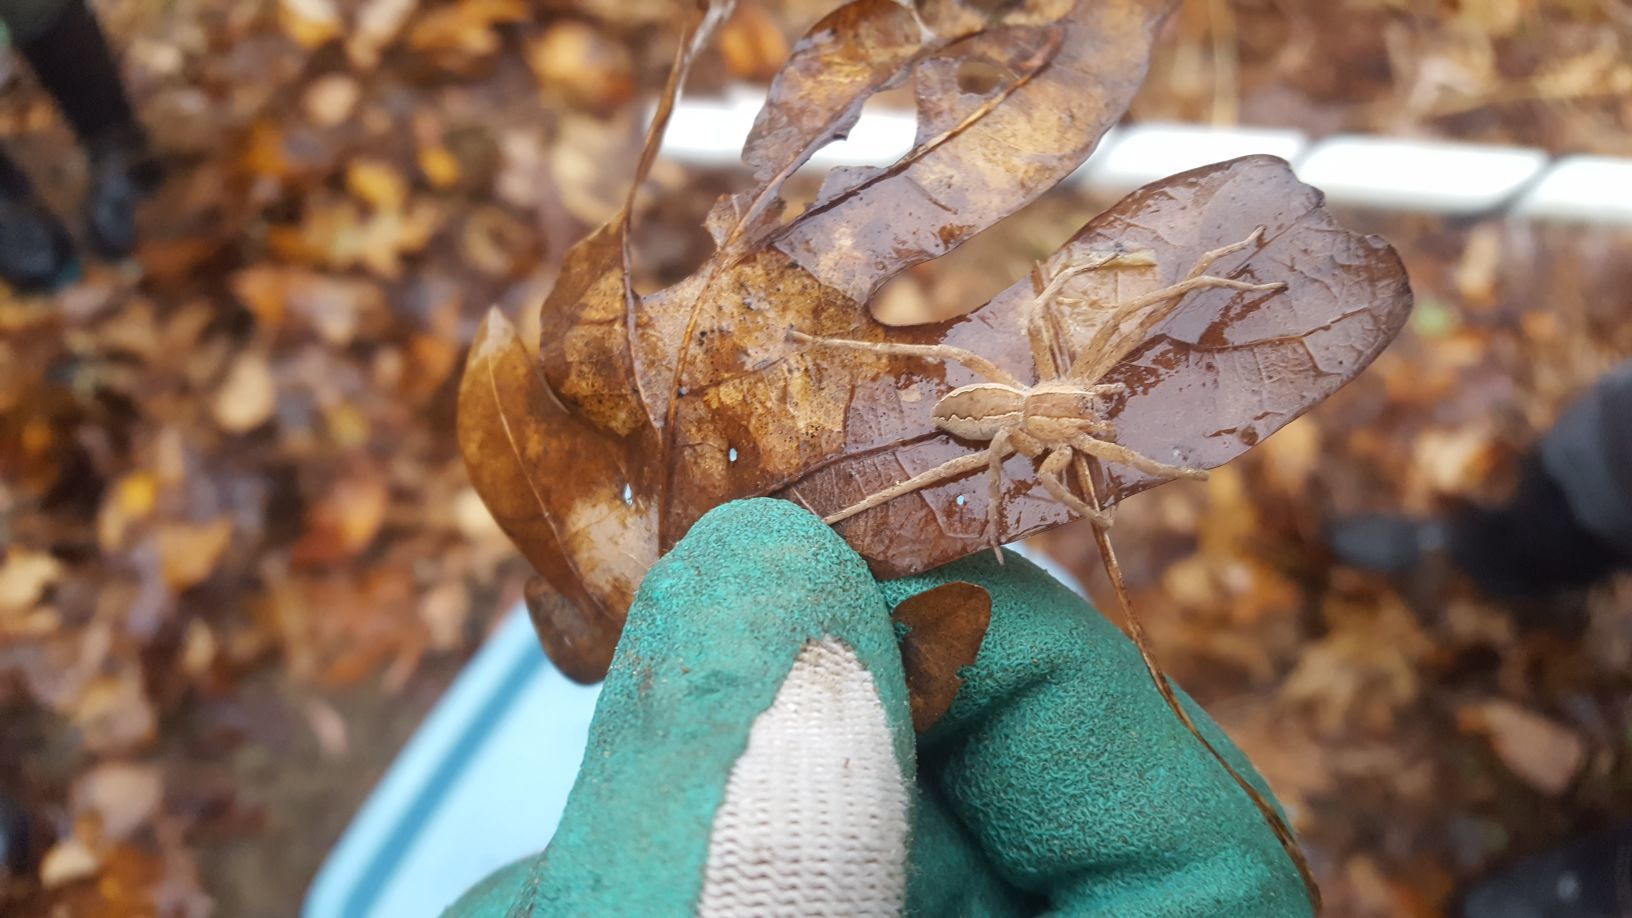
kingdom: Animalia
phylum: Arthropoda
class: Arachnida
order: Araneae
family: Pisauridae
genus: Pisaurina
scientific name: Pisaurina mira
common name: American nursery web spider
